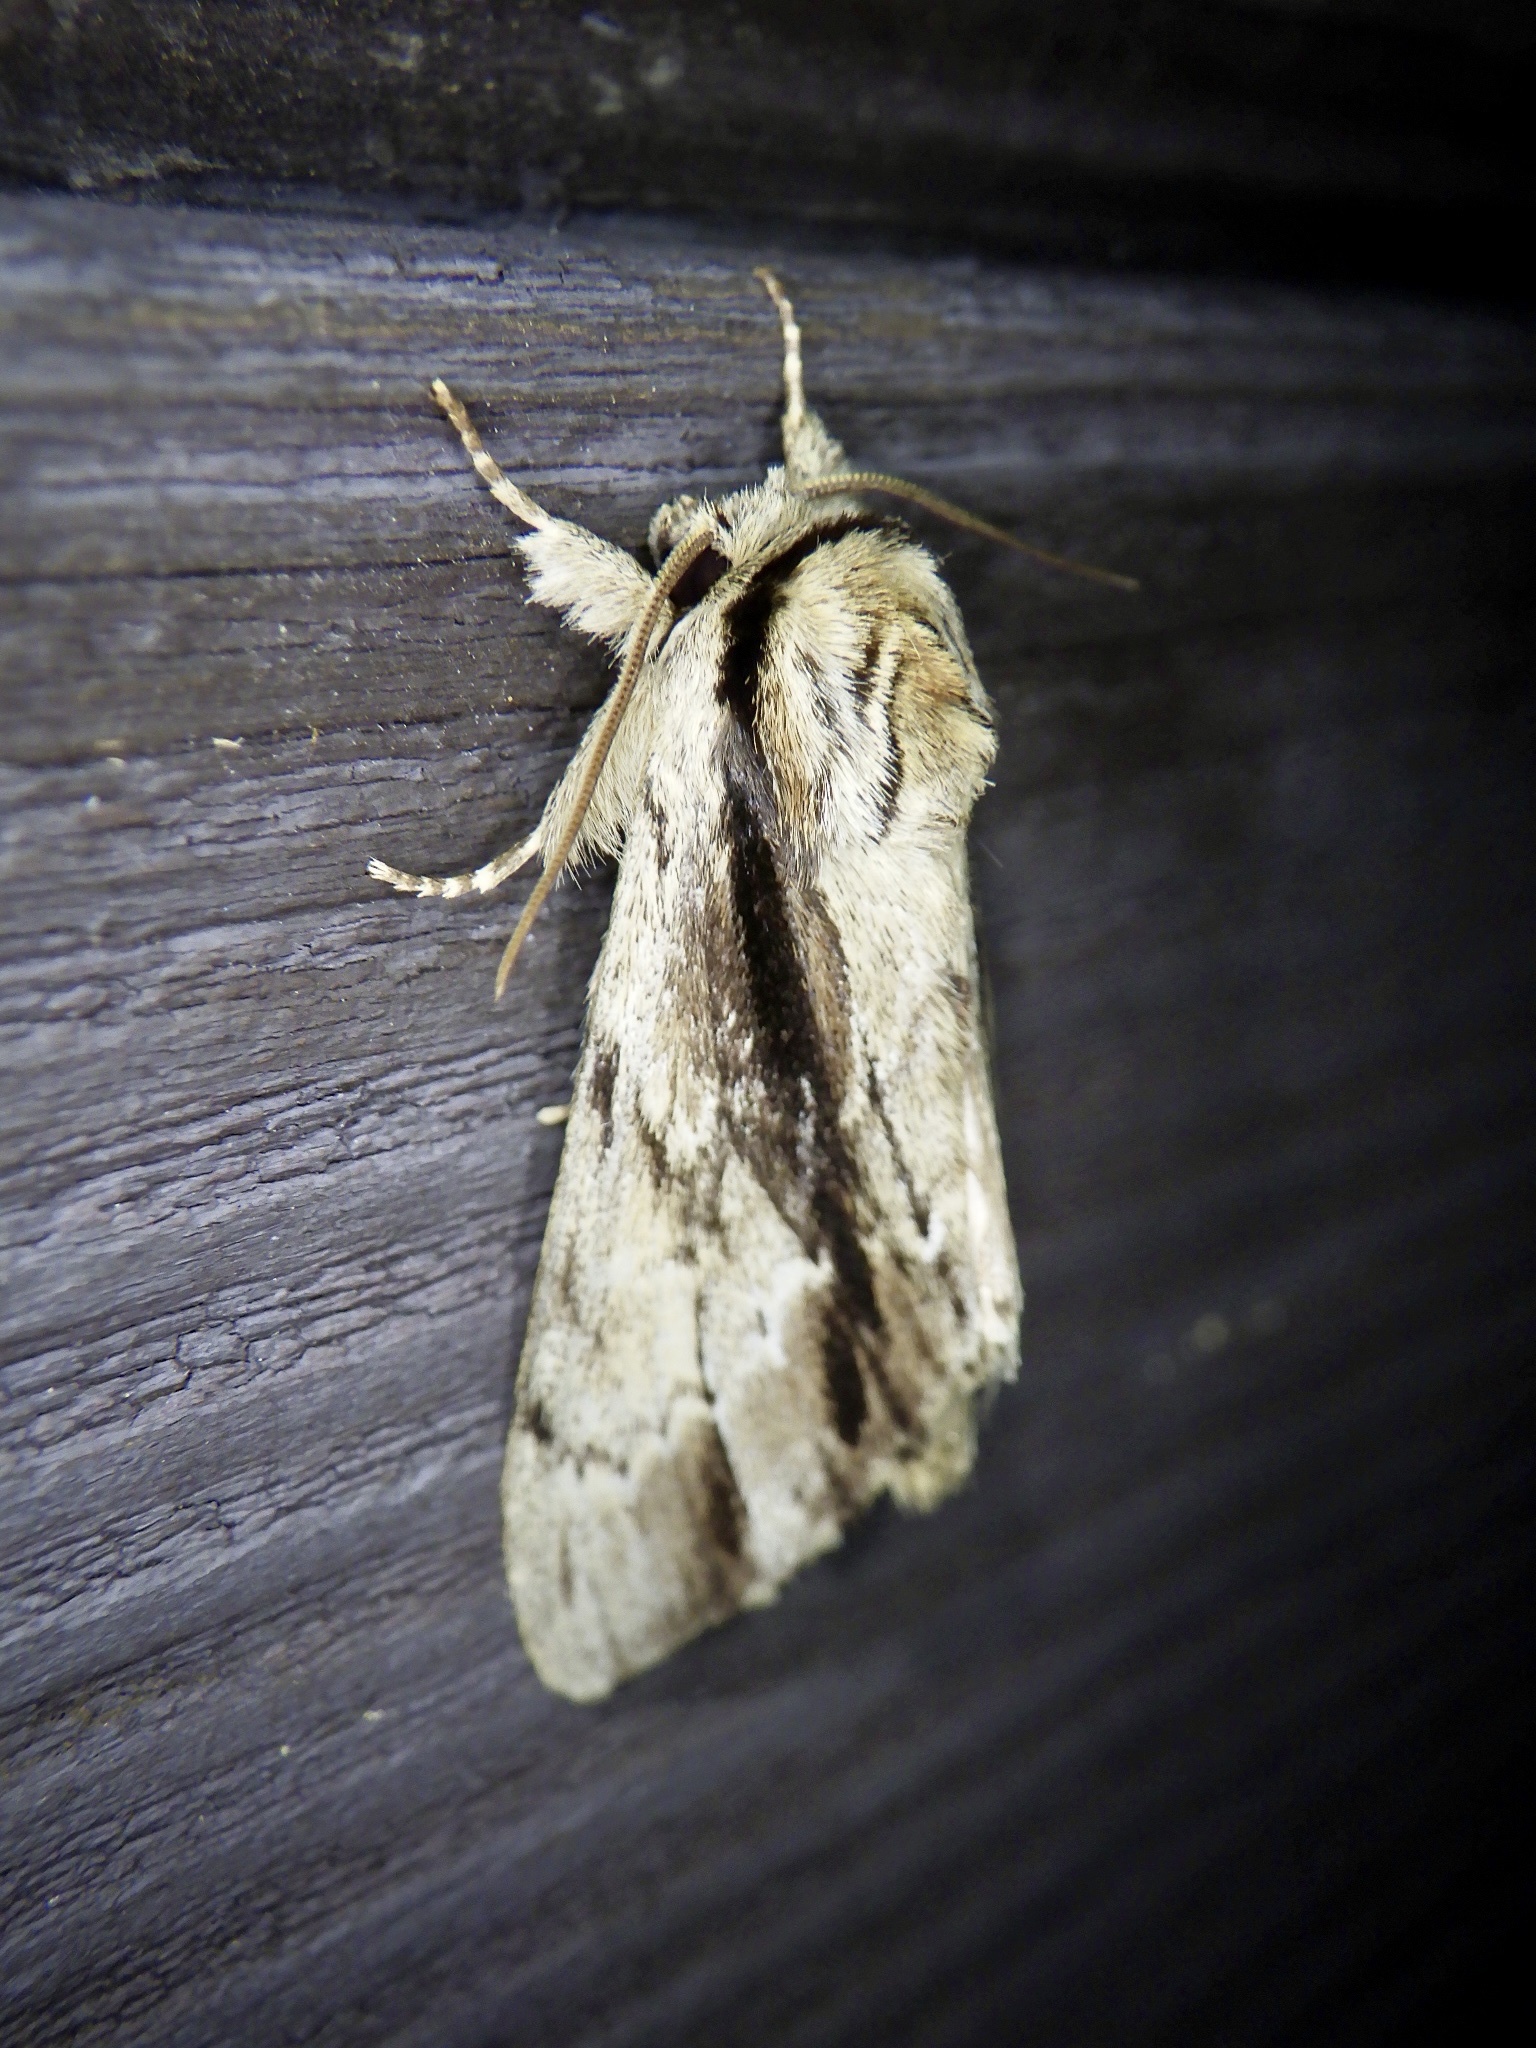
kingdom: Animalia
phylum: Arthropoda
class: Insecta
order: Lepidoptera
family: Notodontidae
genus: Shaka
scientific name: Shaka atrovittatus
